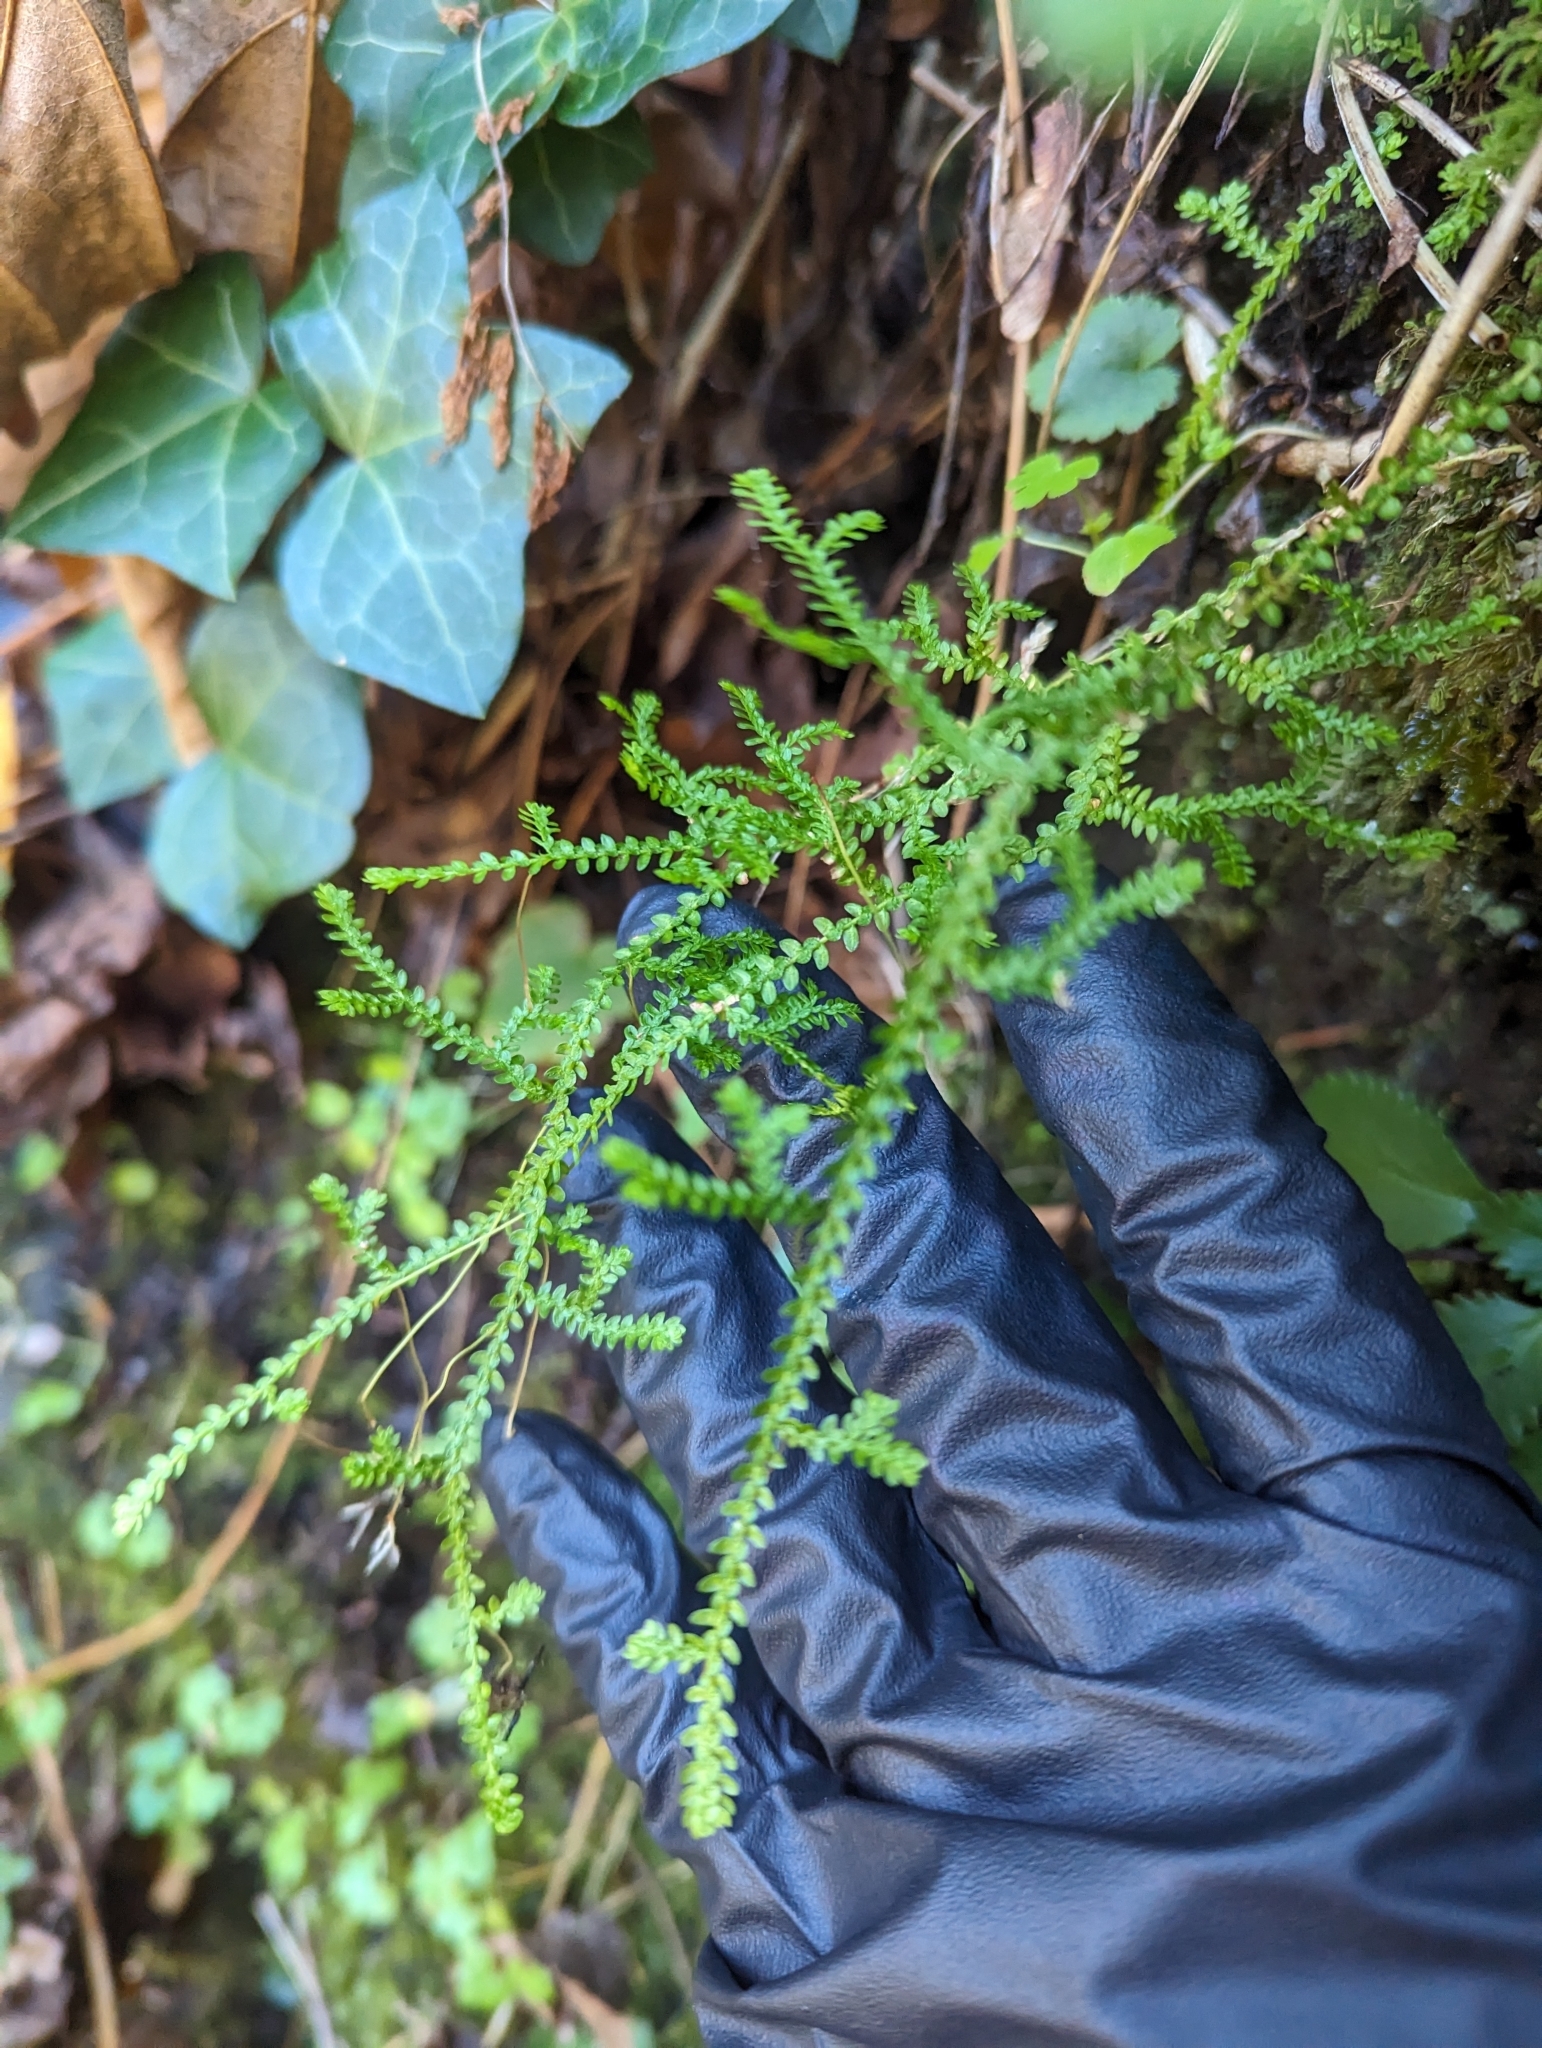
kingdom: Plantae
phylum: Tracheophyta
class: Lycopodiopsida
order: Selaginellales
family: Selaginellaceae
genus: Selaginella
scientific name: Selaginella douglasii
